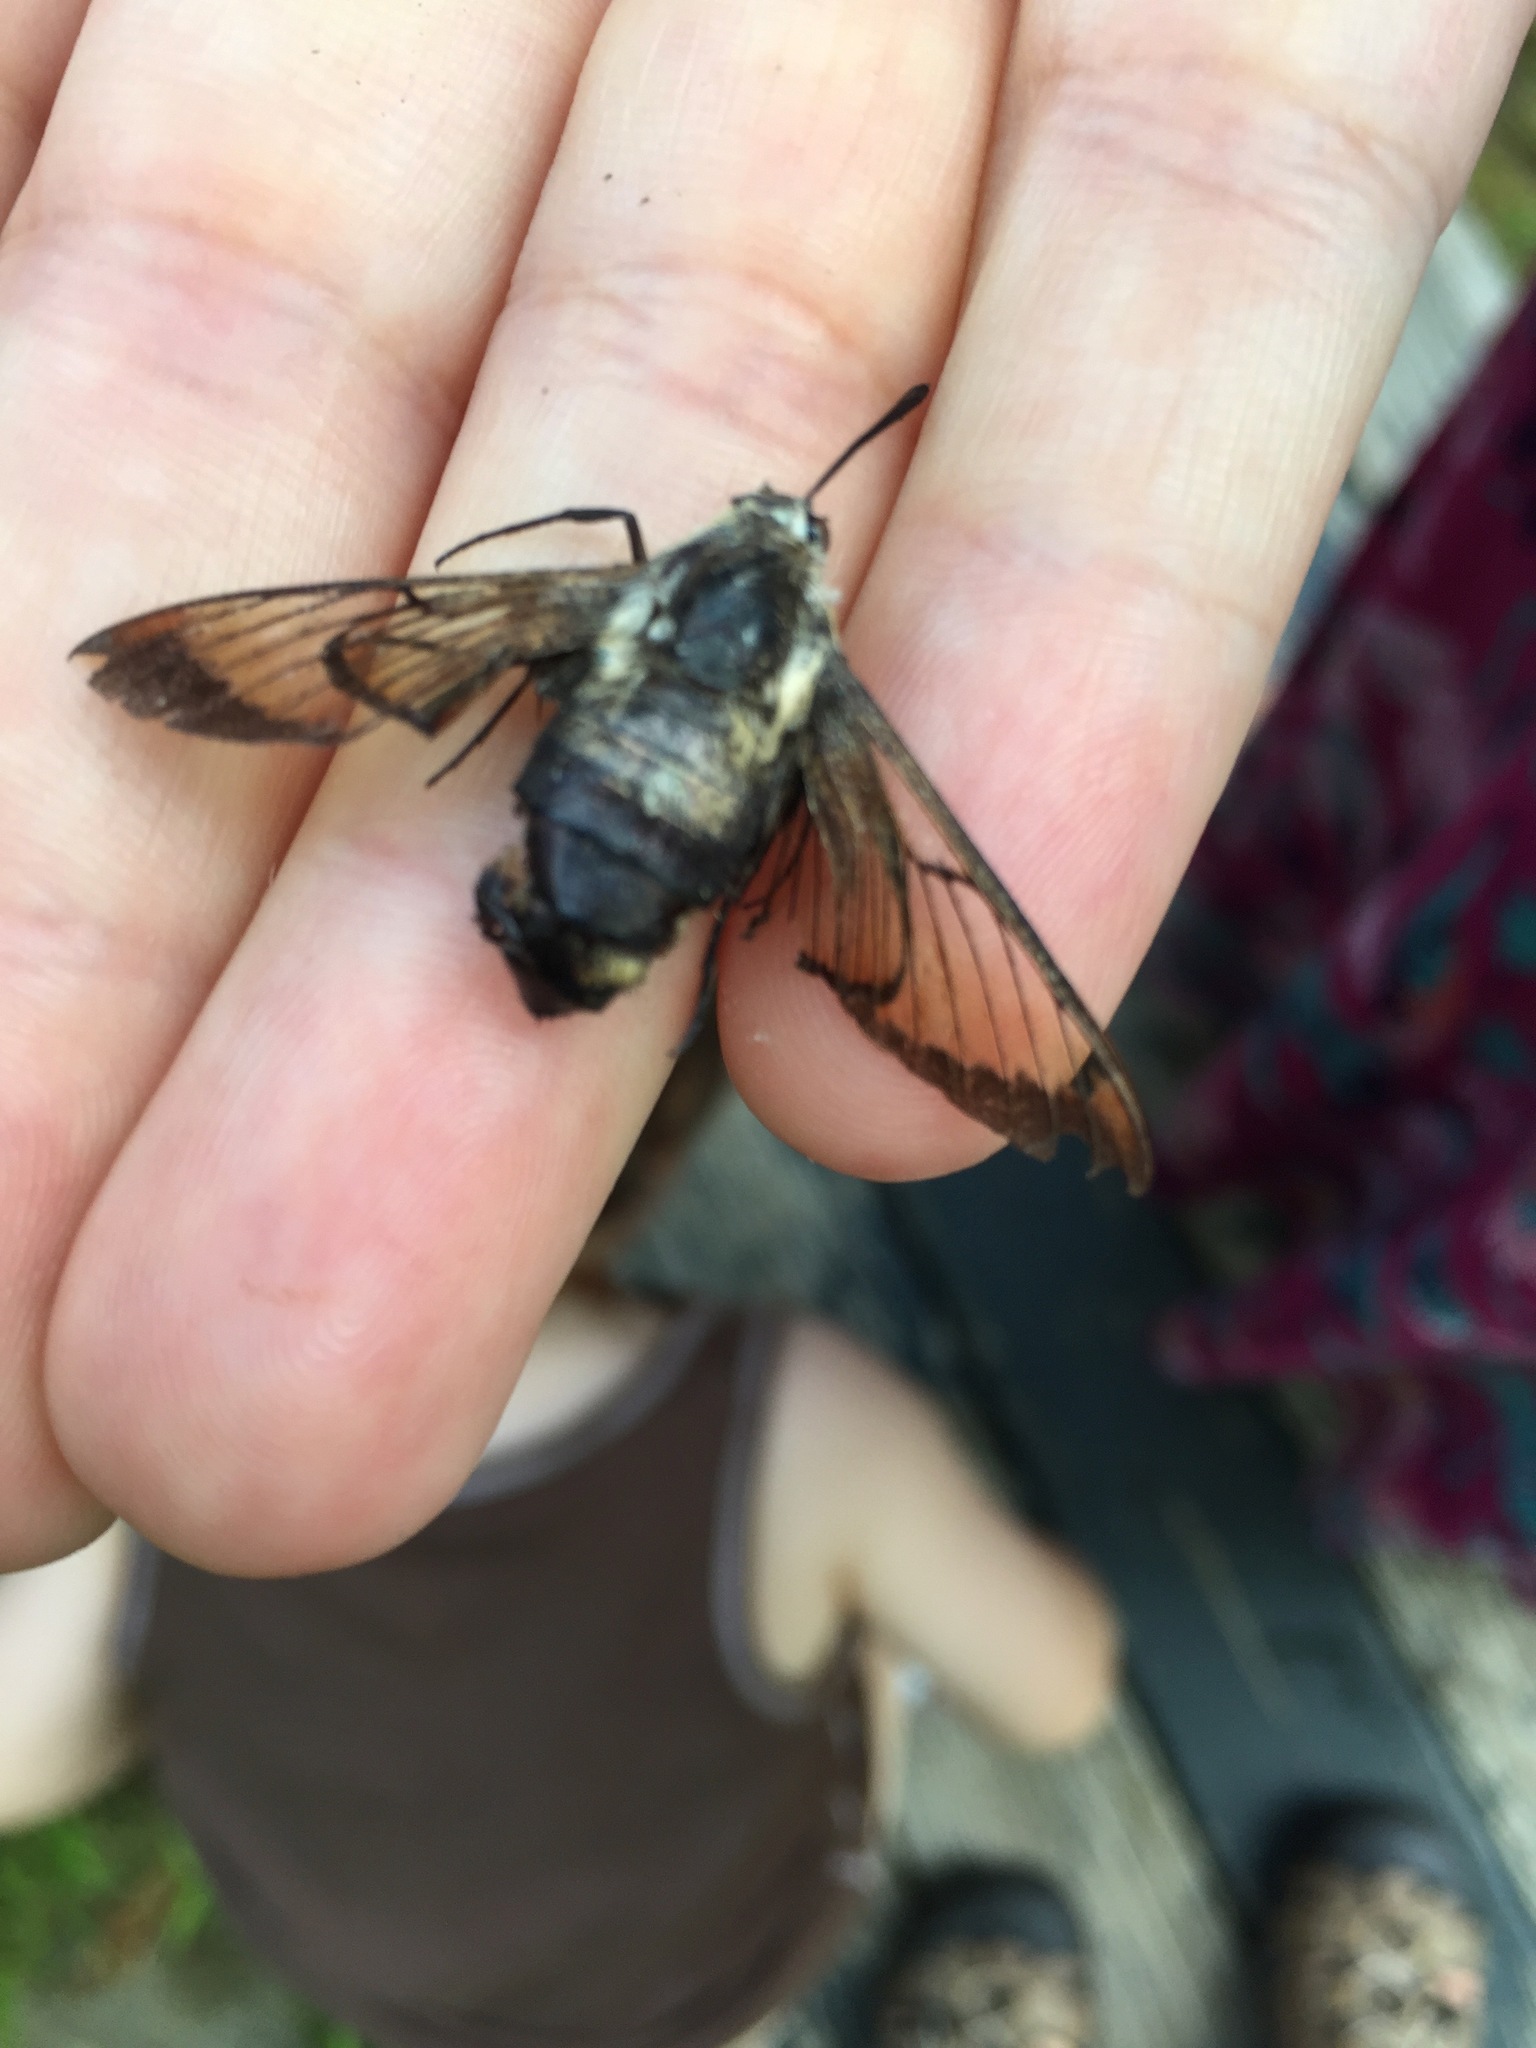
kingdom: Animalia
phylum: Arthropoda
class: Insecta
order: Lepidoptera
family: Sphingidae
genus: Hemaris
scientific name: Hemaris diffinis
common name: Bumblebee moth
